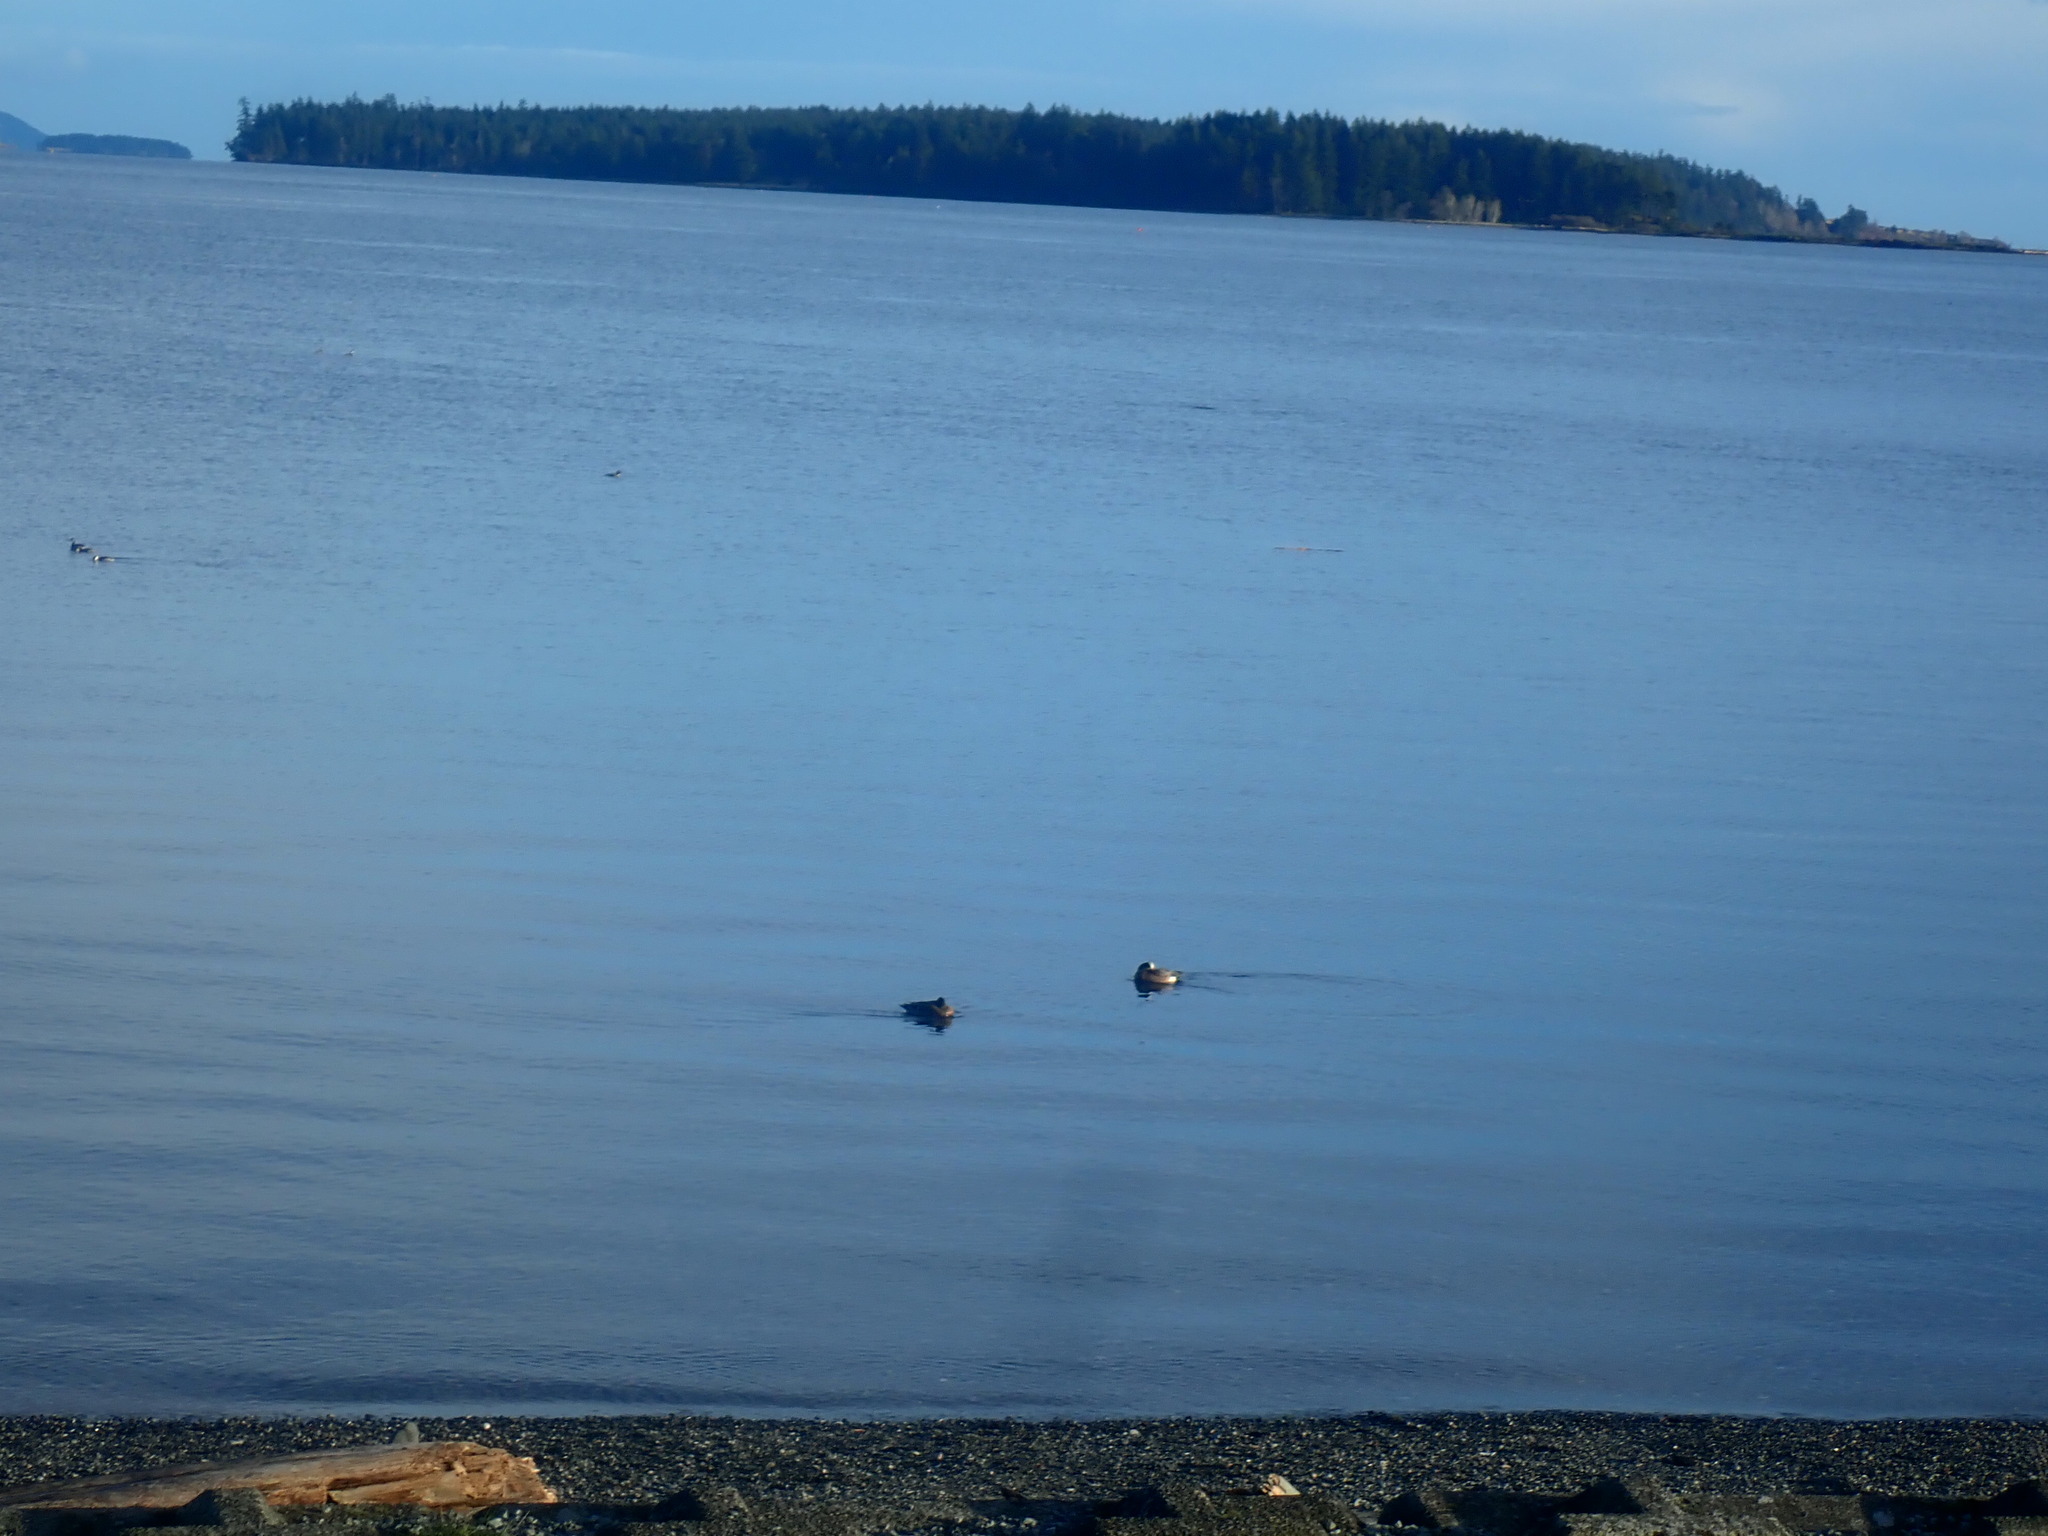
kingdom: Animalia
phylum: Chordata
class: Aves
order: Anseriformes
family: Anatidae
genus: Mareca
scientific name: Mareca americana
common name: American wigeon
